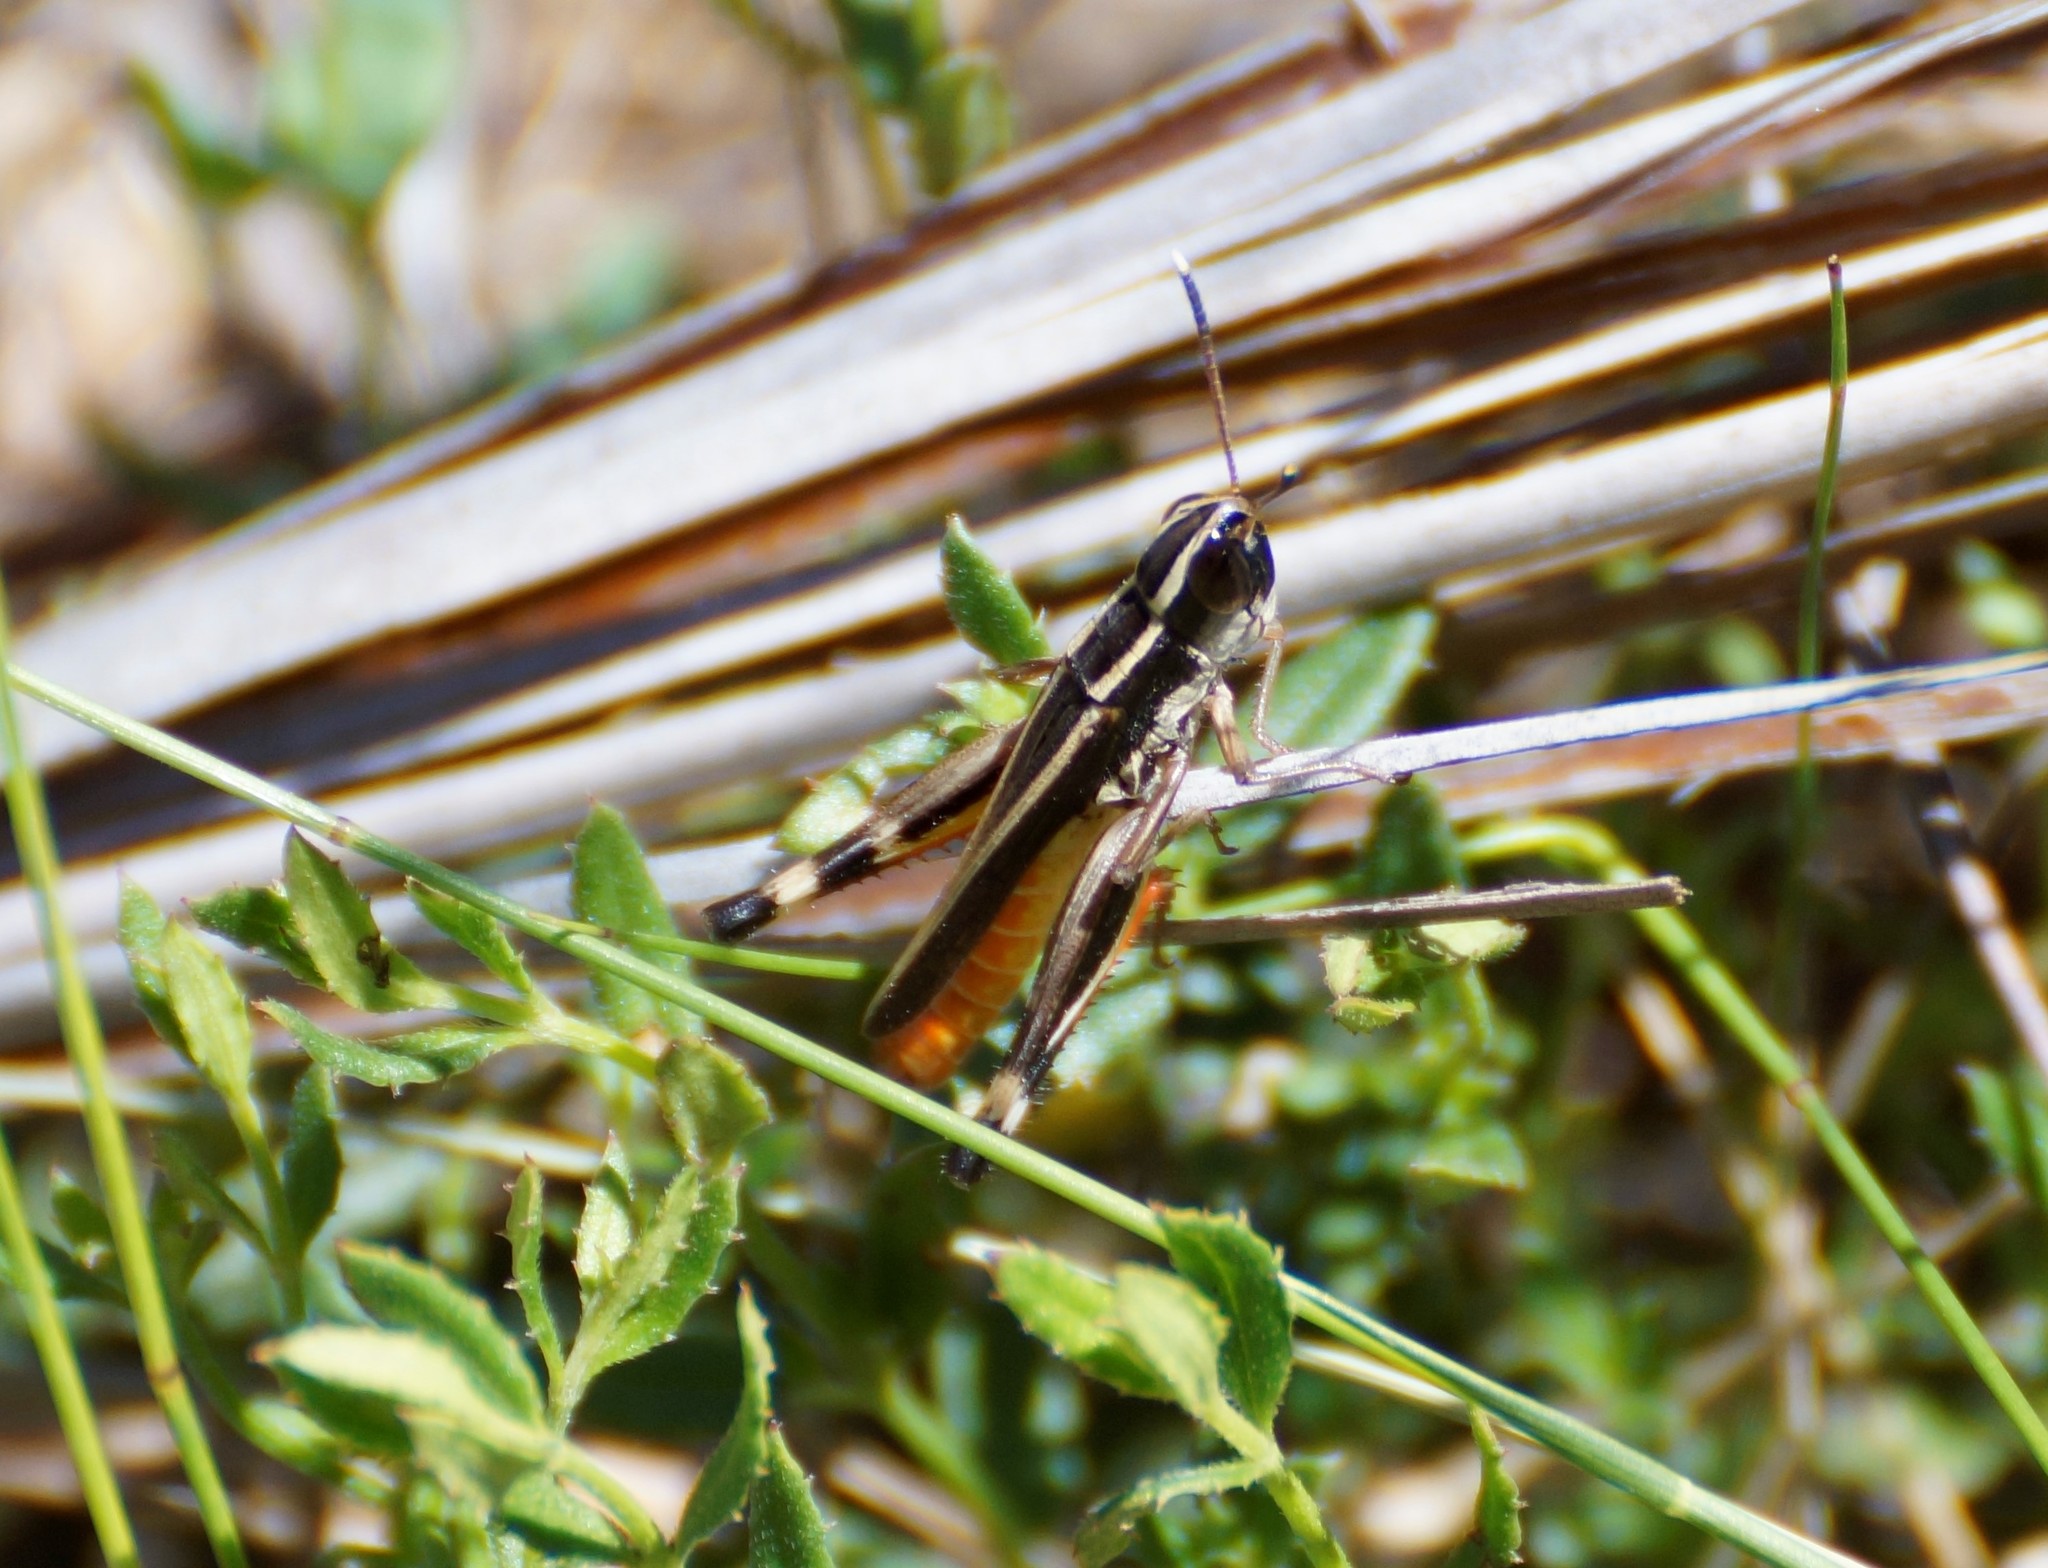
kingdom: Animalia
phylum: Arthropoda
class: Insecta
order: Orthoptera
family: Acrididae
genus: Macrotona
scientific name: Macrotona australis
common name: Common macrotona
